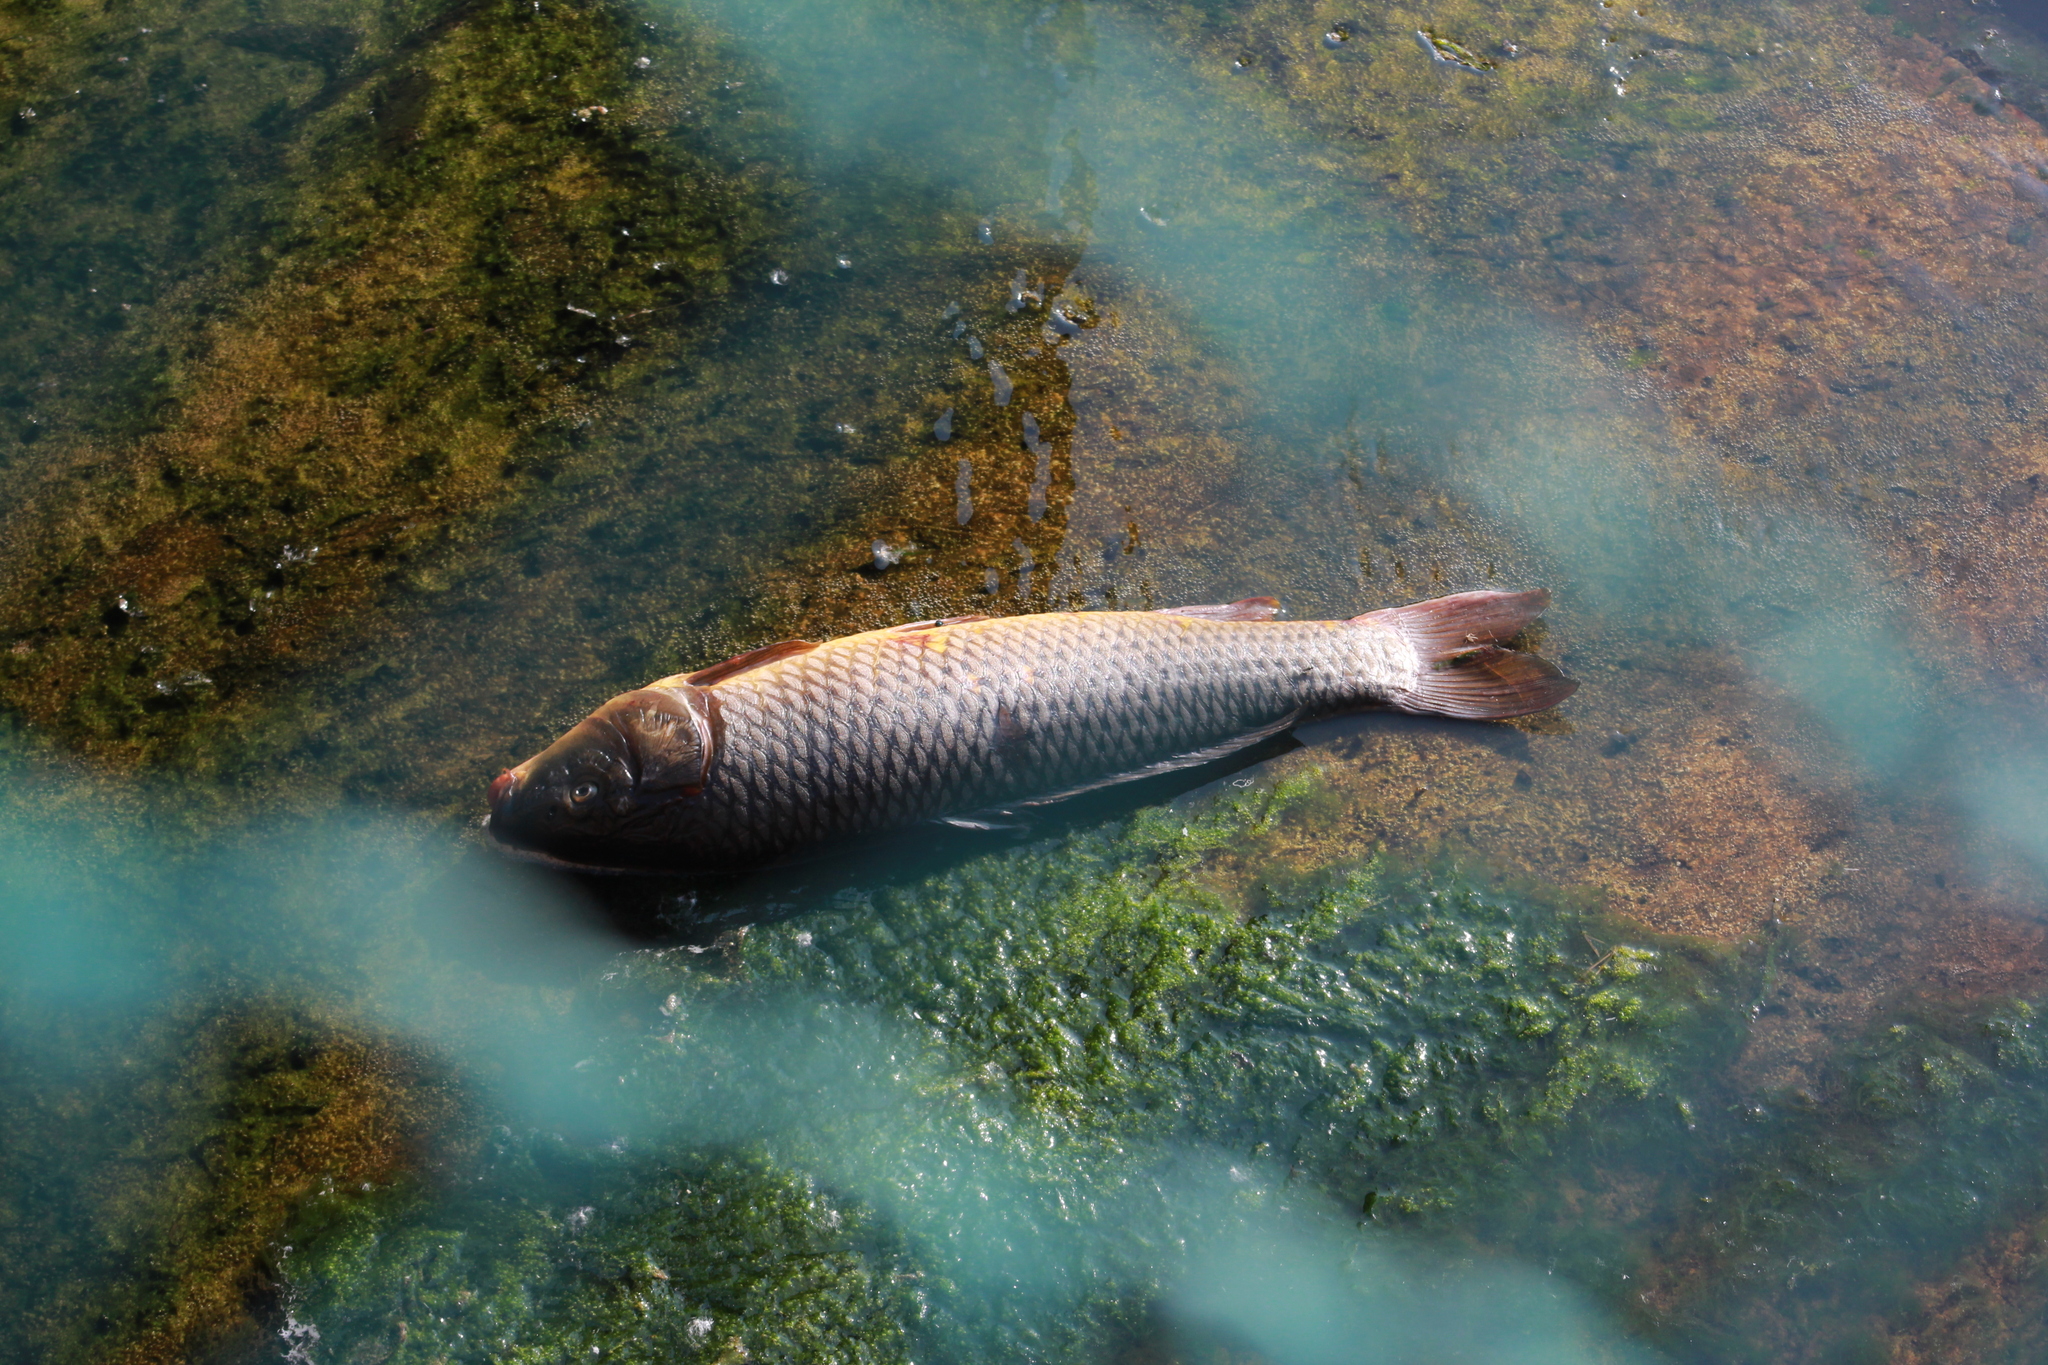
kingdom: Animalia
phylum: Chordata
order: Cypriniformes
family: Cyprinidae
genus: Cyprinus
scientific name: Cyprinus carpio
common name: Common carp
